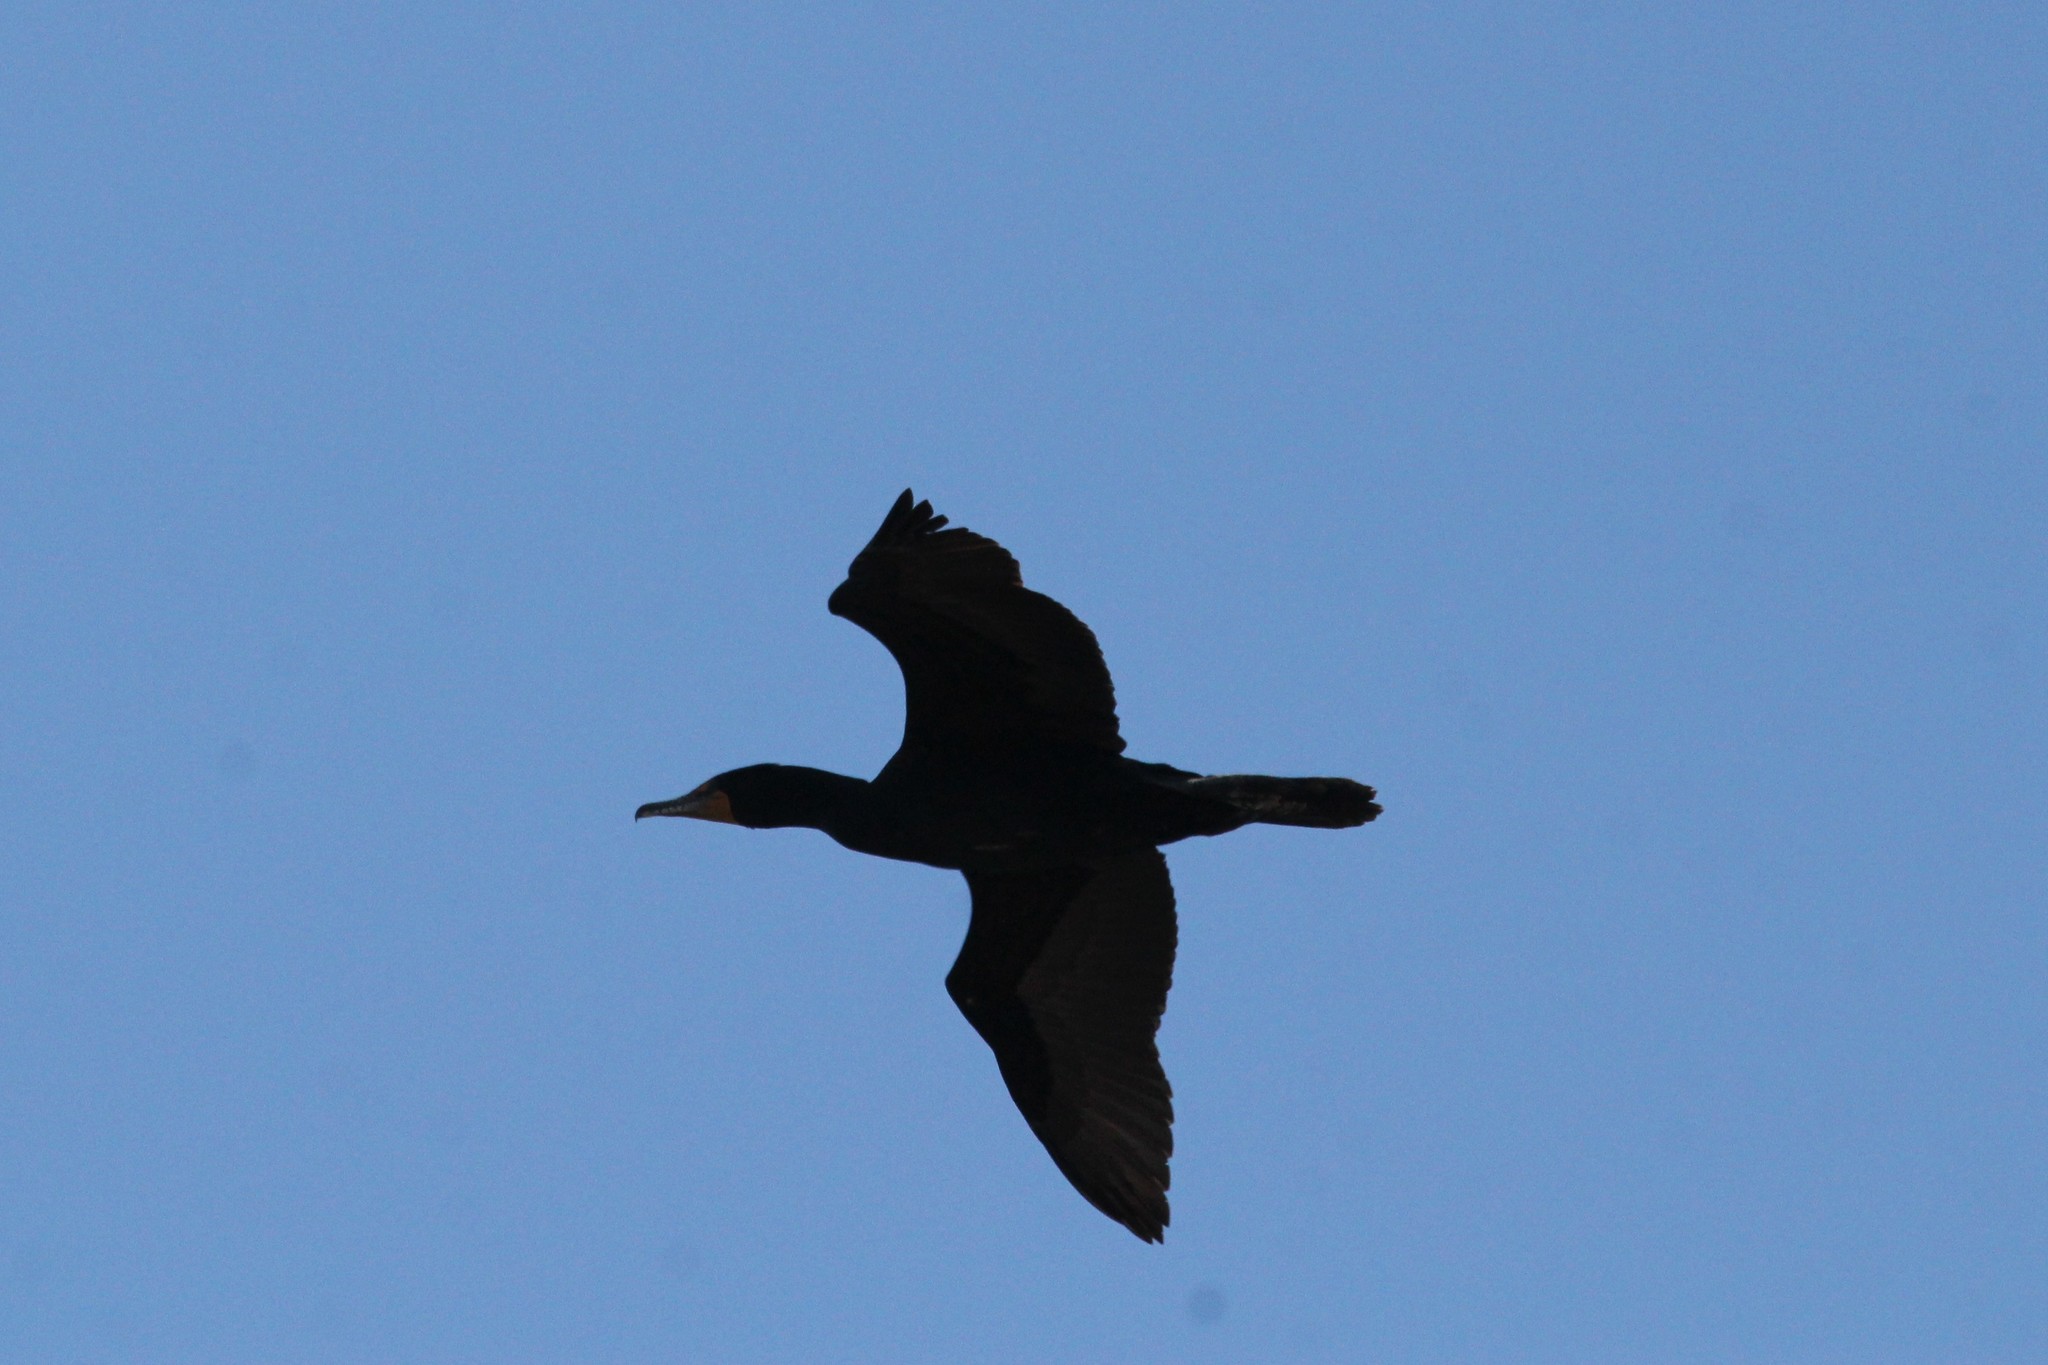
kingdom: Animalia
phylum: Chordata
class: Aves
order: Suliformes
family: Phalacrocoracidae
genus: Phalacrocorax
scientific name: Phalacrocorax auritus
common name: Double-crested cormorant
